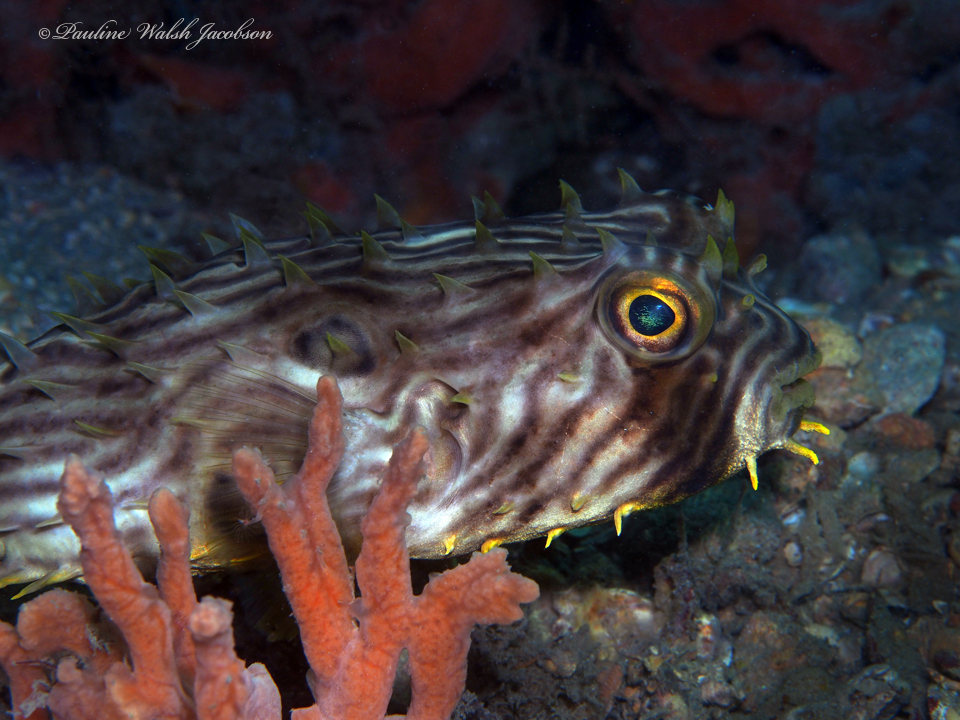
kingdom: Animalia
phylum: Chordata
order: Tetraodontiformes
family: Diodontidae
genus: Chilomycterus
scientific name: Chilomycterus schoepfii
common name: Striped burrfish
